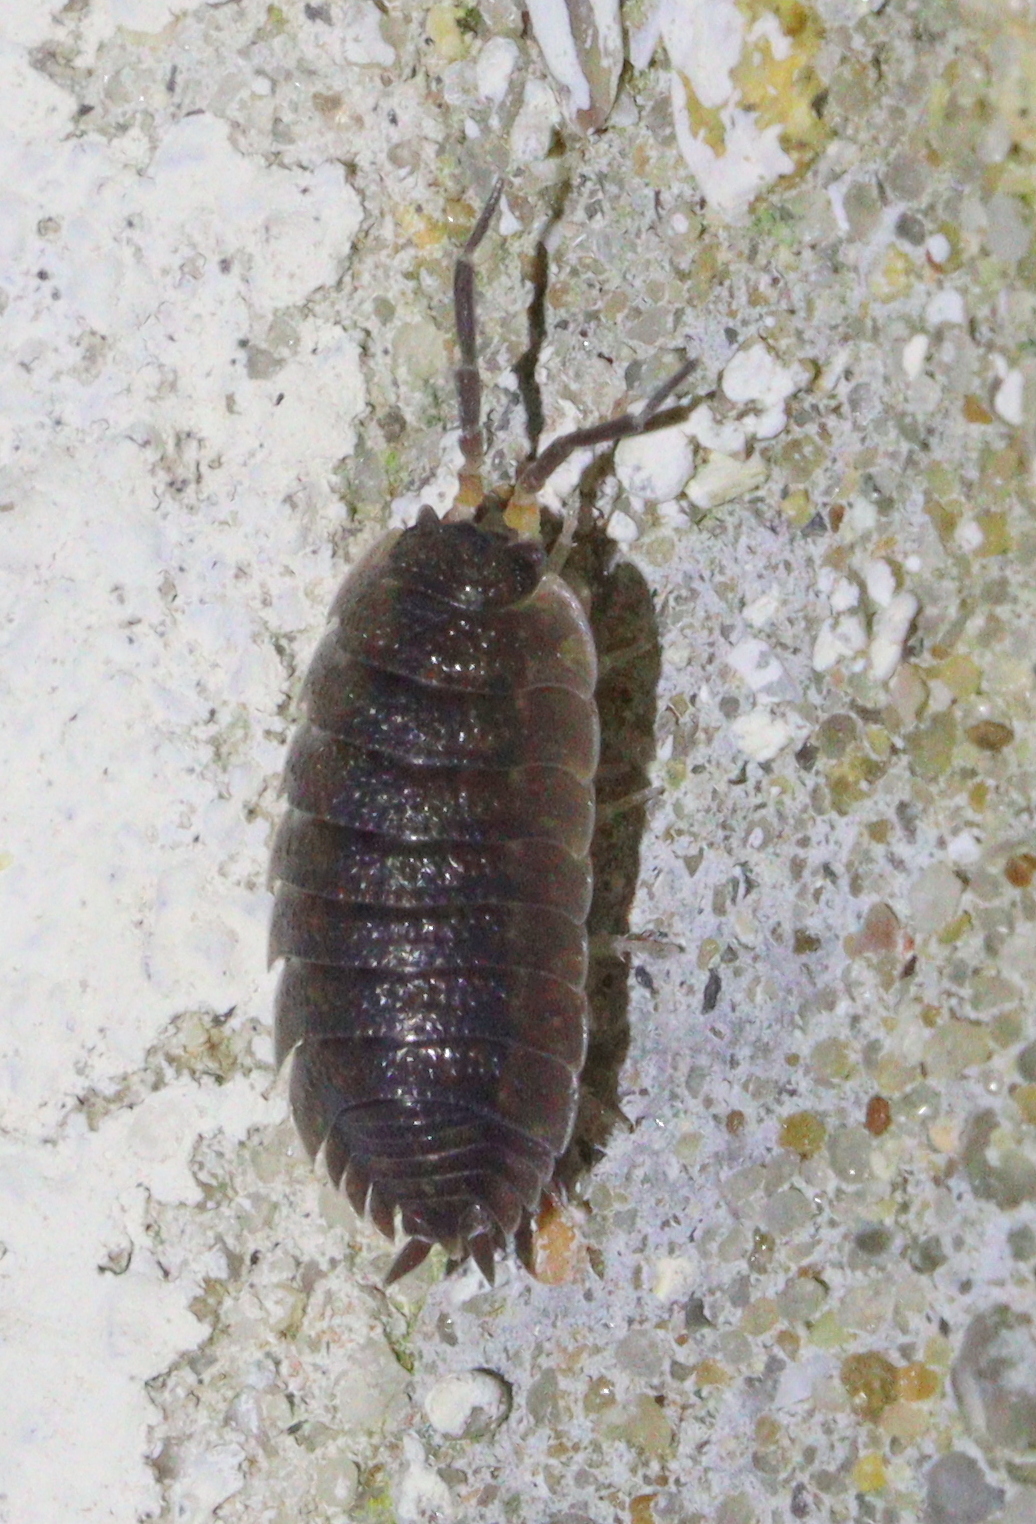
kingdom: Animalia
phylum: Arthropoda
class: Malacostraca
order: Isopoda
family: Porcellionidae
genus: Porcellio
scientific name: Porcellio scaber
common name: Common rough woodlouse
